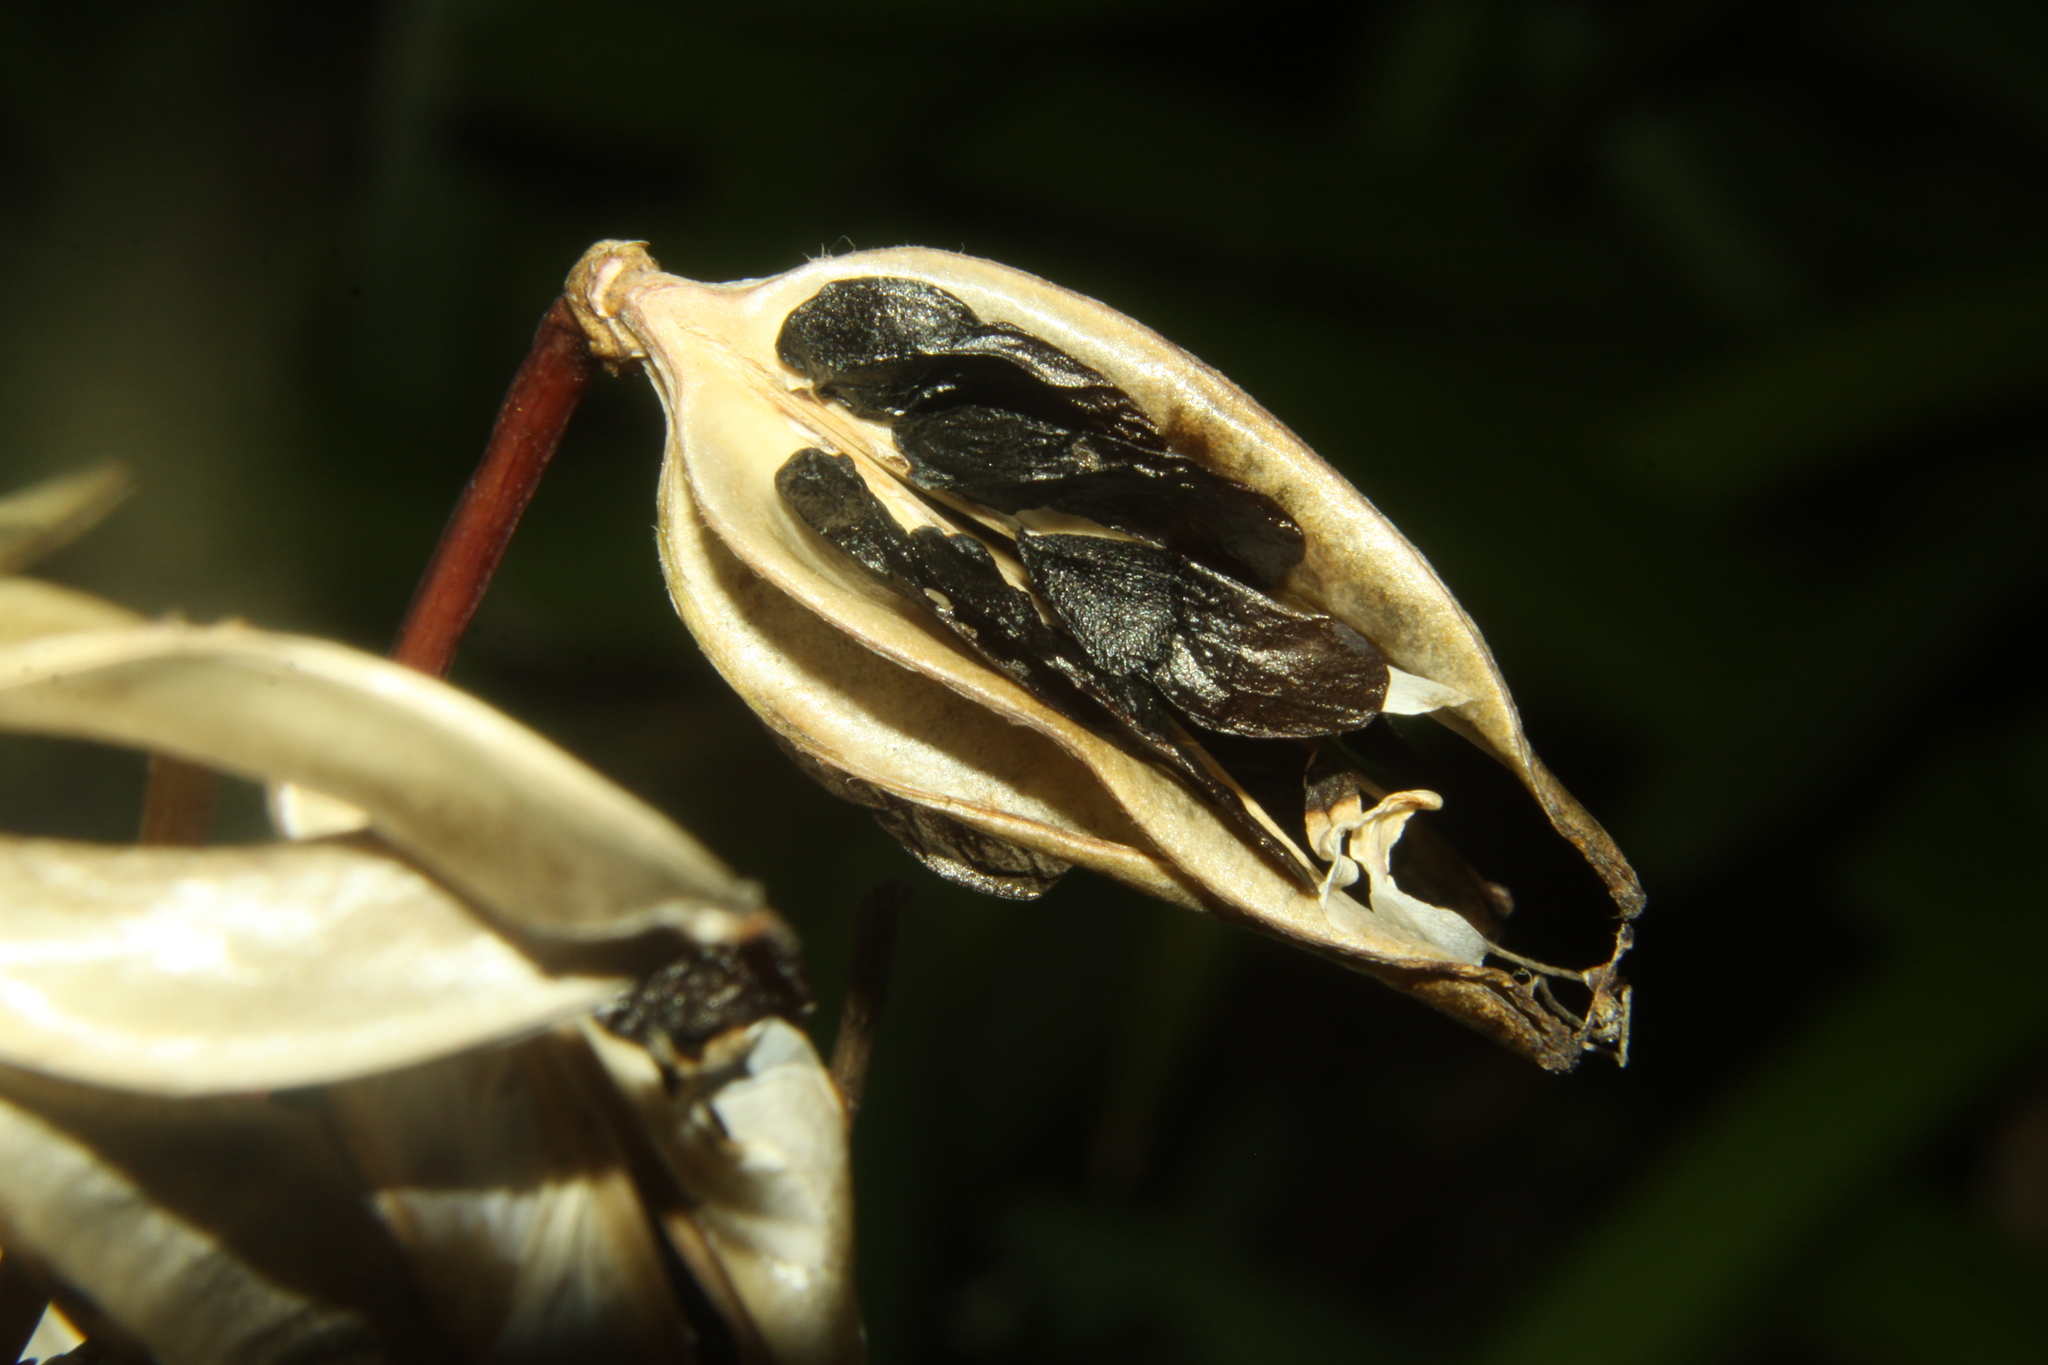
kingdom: Plantae
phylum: Tracheophyta
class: Liliopsida
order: Asparagales
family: Amaryllidaceae
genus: Agapanthus
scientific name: Agapanthus praecox
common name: African-lily
